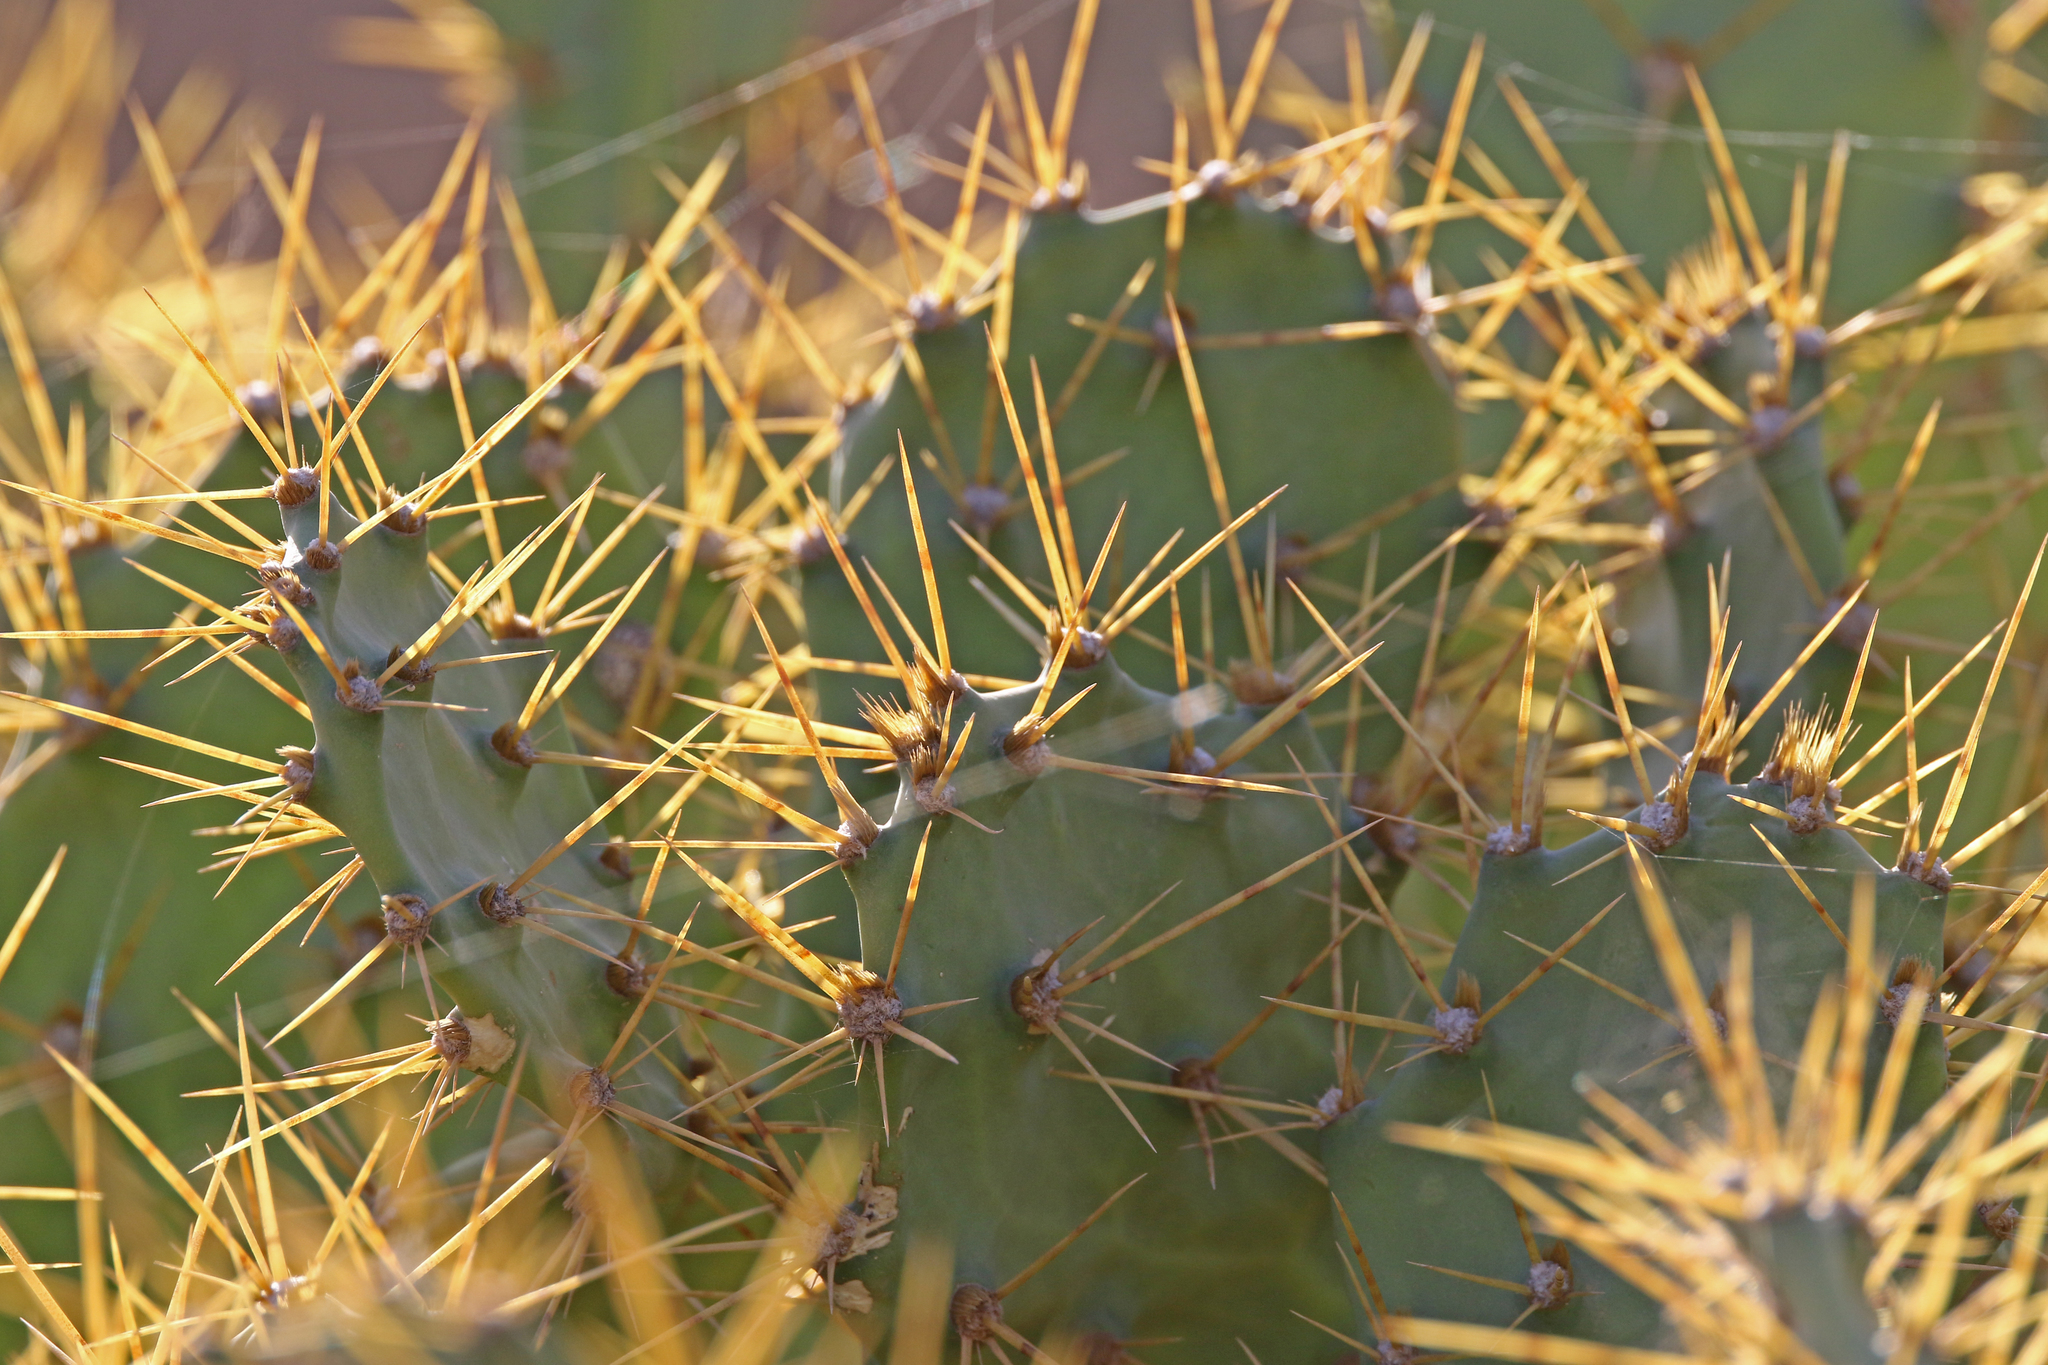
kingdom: Plantae
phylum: Tracheophyta
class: Magnoliopsida
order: Caryophyllales
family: Cactaceae
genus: Opuntia
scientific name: Opuntia stricta
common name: Erect pricklypear
